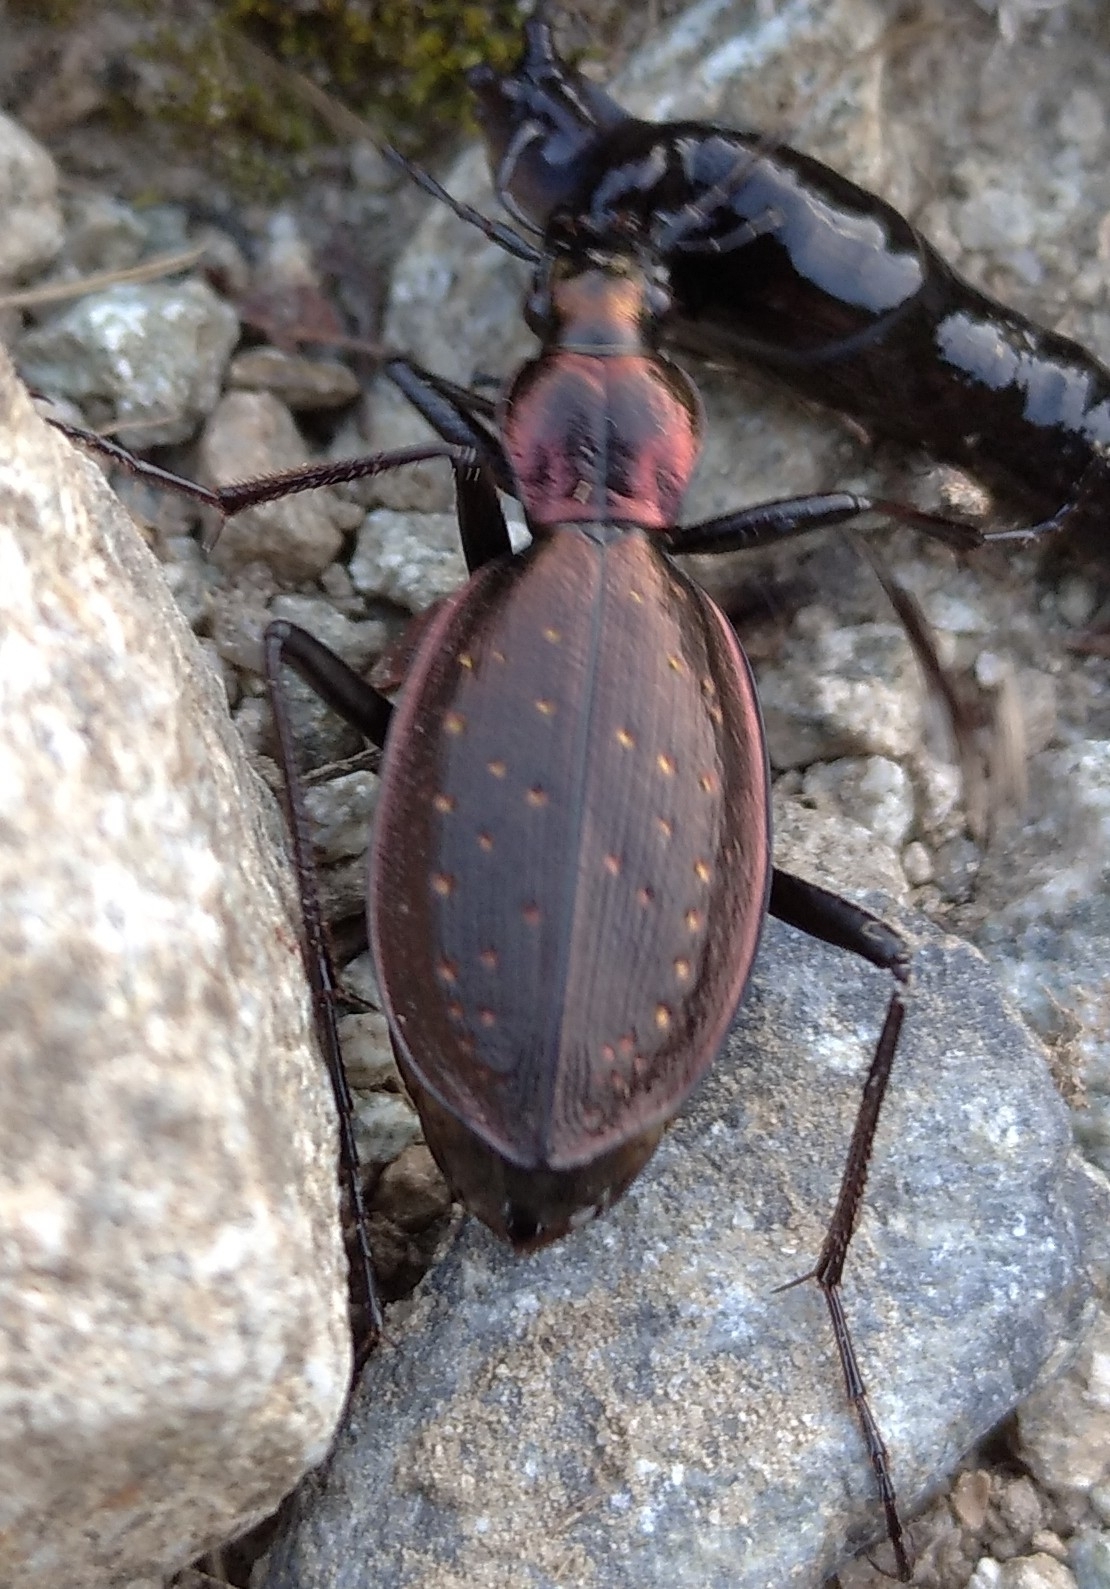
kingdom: Animalia
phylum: Arthropoda
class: Insecta
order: Coleoptera
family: Carabidae
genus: Carabus
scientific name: Carabus depressus
